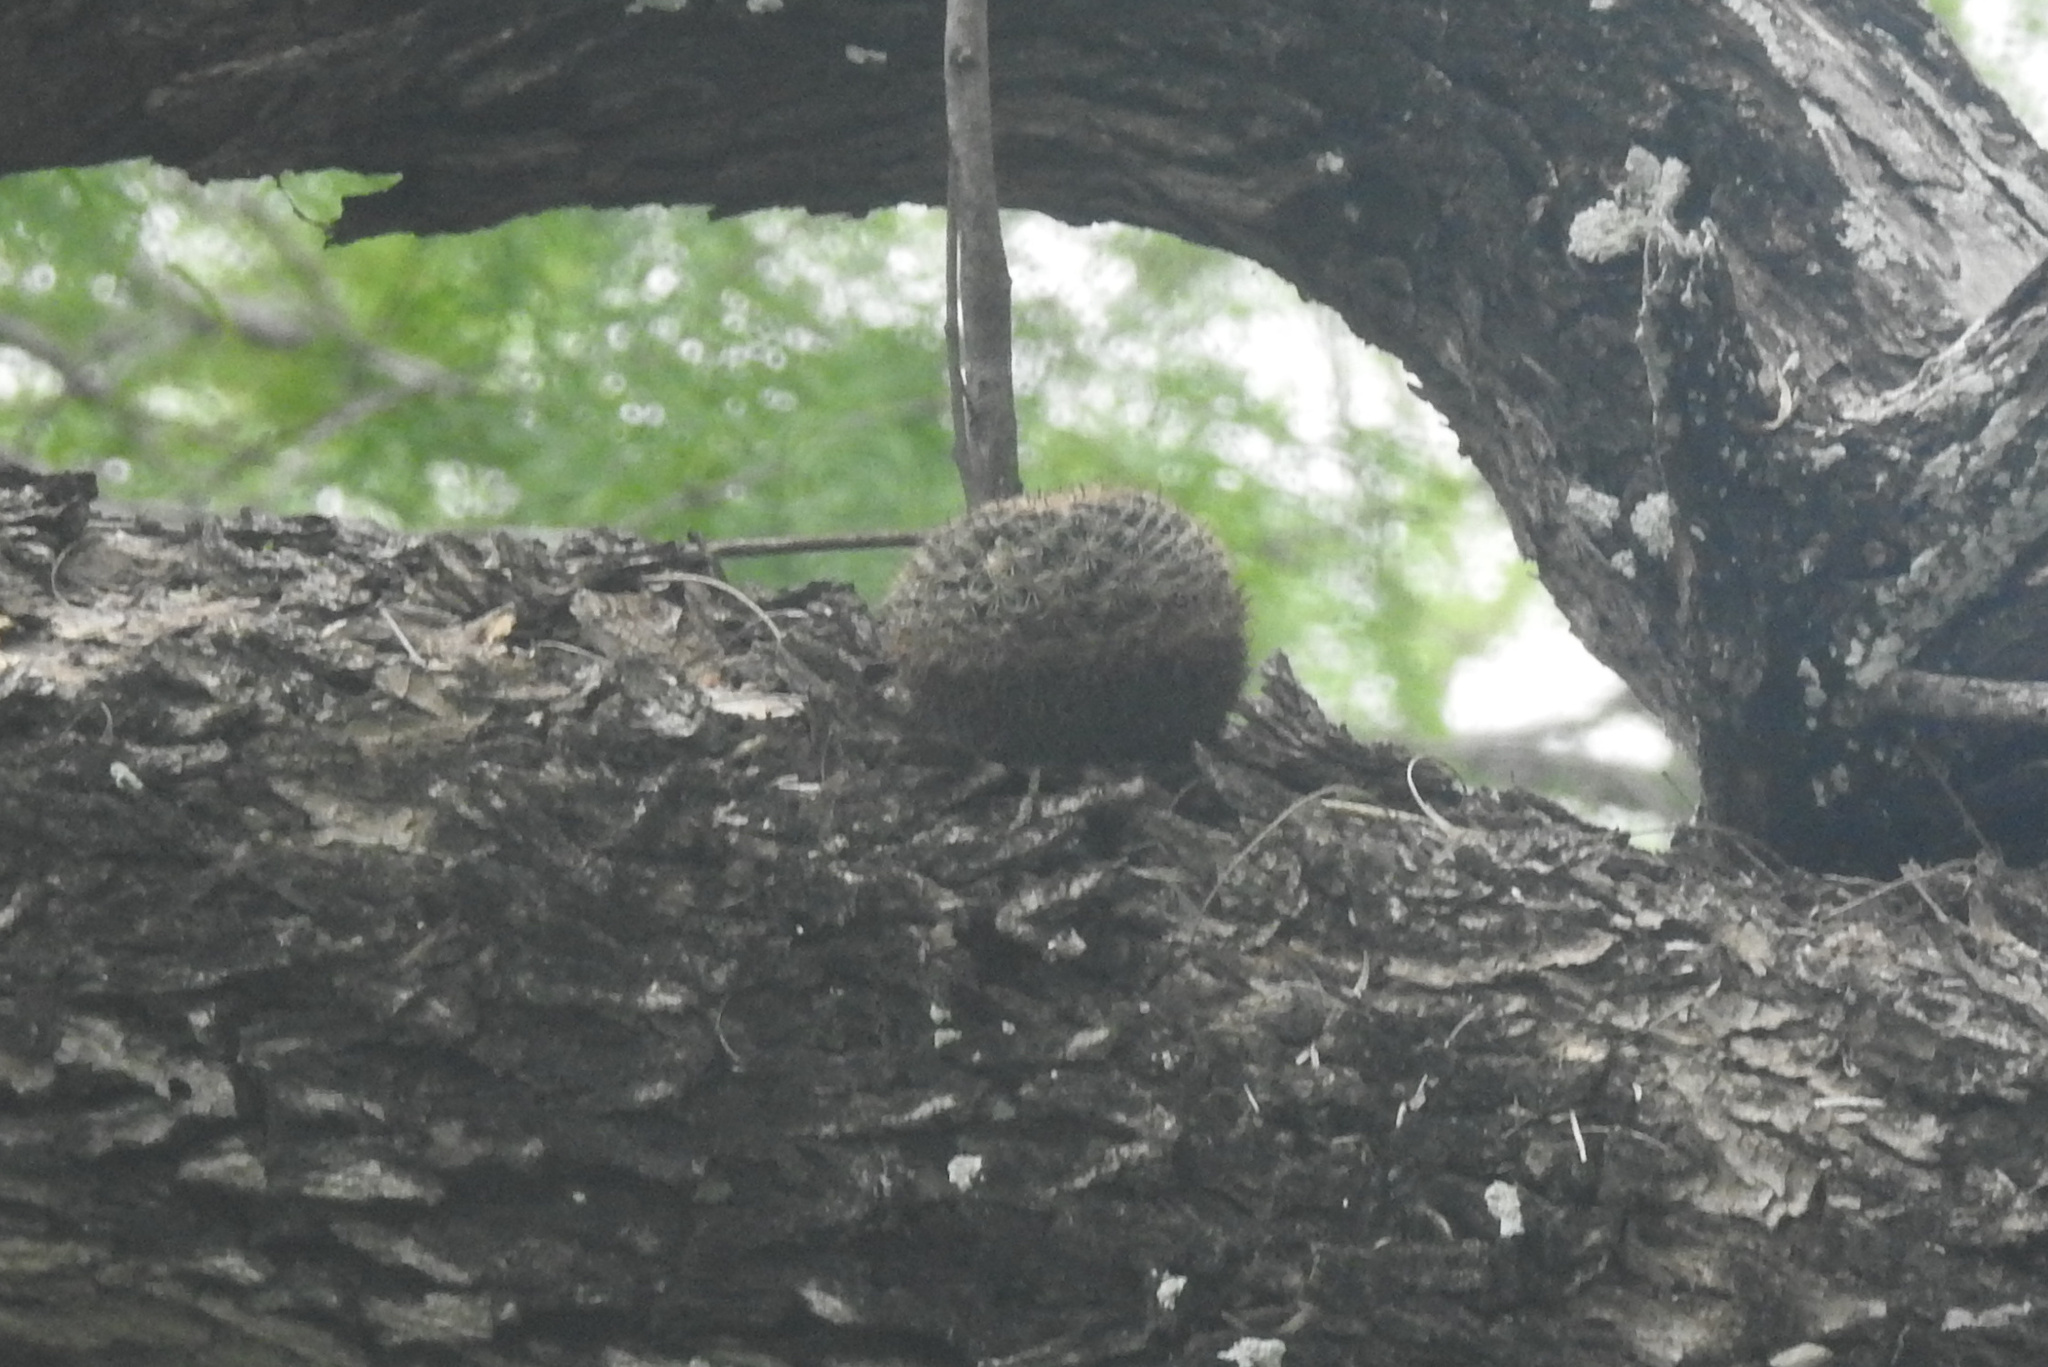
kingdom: Plantae
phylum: Tracheophyta
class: Magnoliopsida
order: Caryophyllales
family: Cactaceae
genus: Mammillaria
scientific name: Mammillaria heyderi
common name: Little nipple cactus
